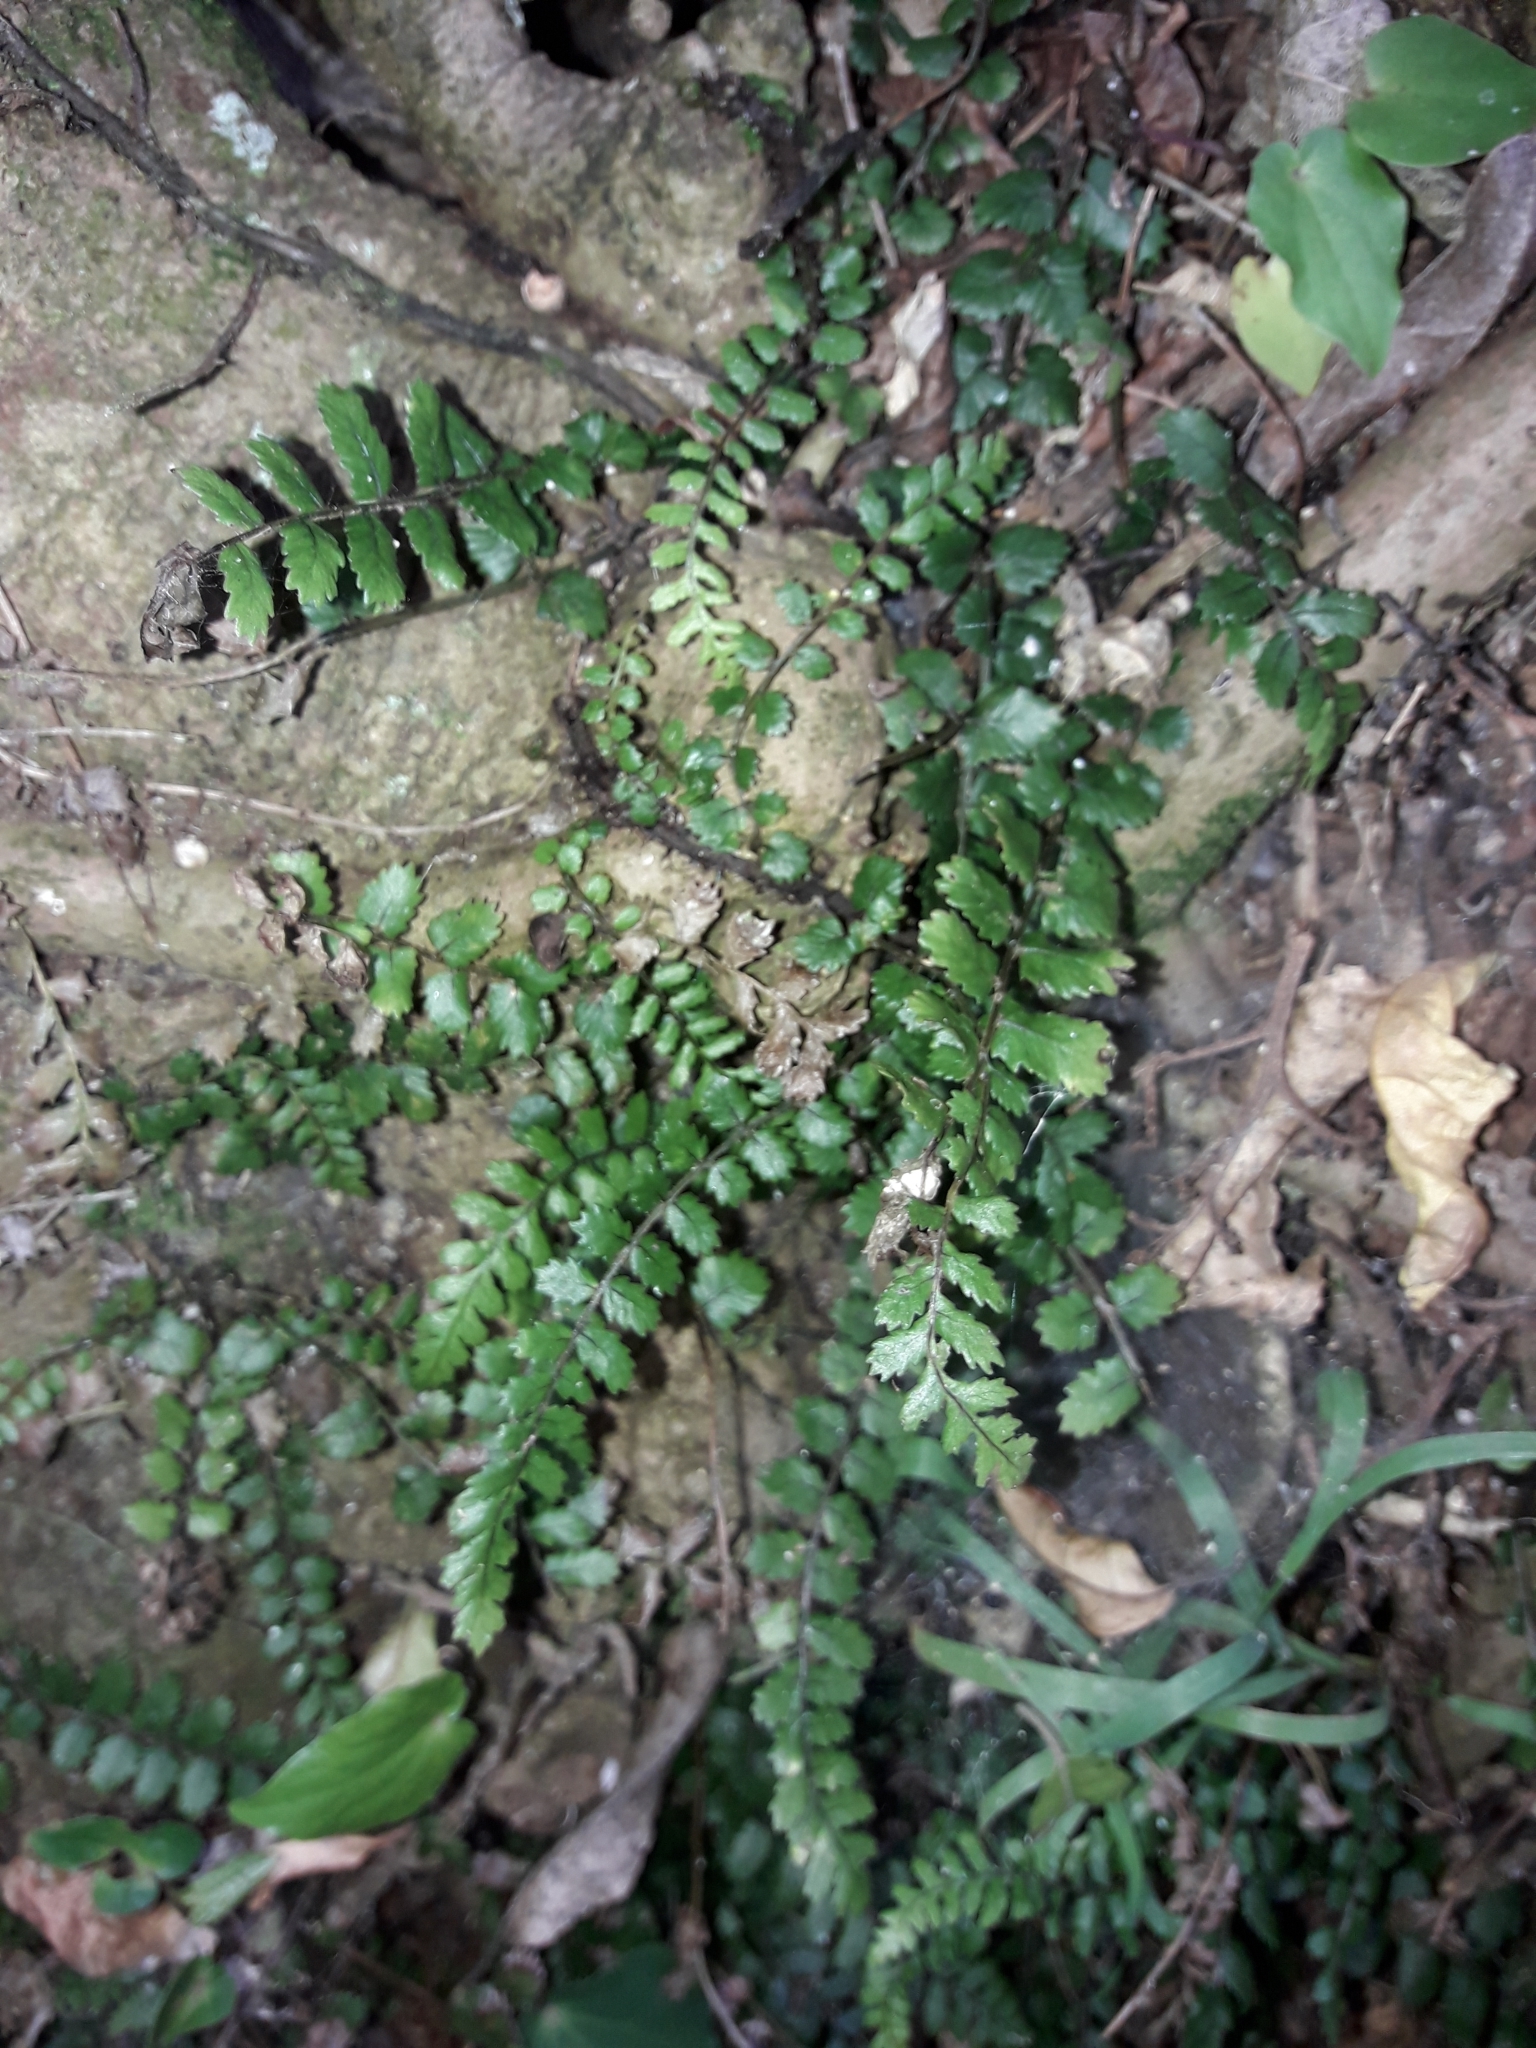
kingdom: Plantae
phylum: Tracheophyta
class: Polypodiopsida
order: Polypodiales
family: Blechnaceae
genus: Icarus
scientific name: Icarus filiformis
